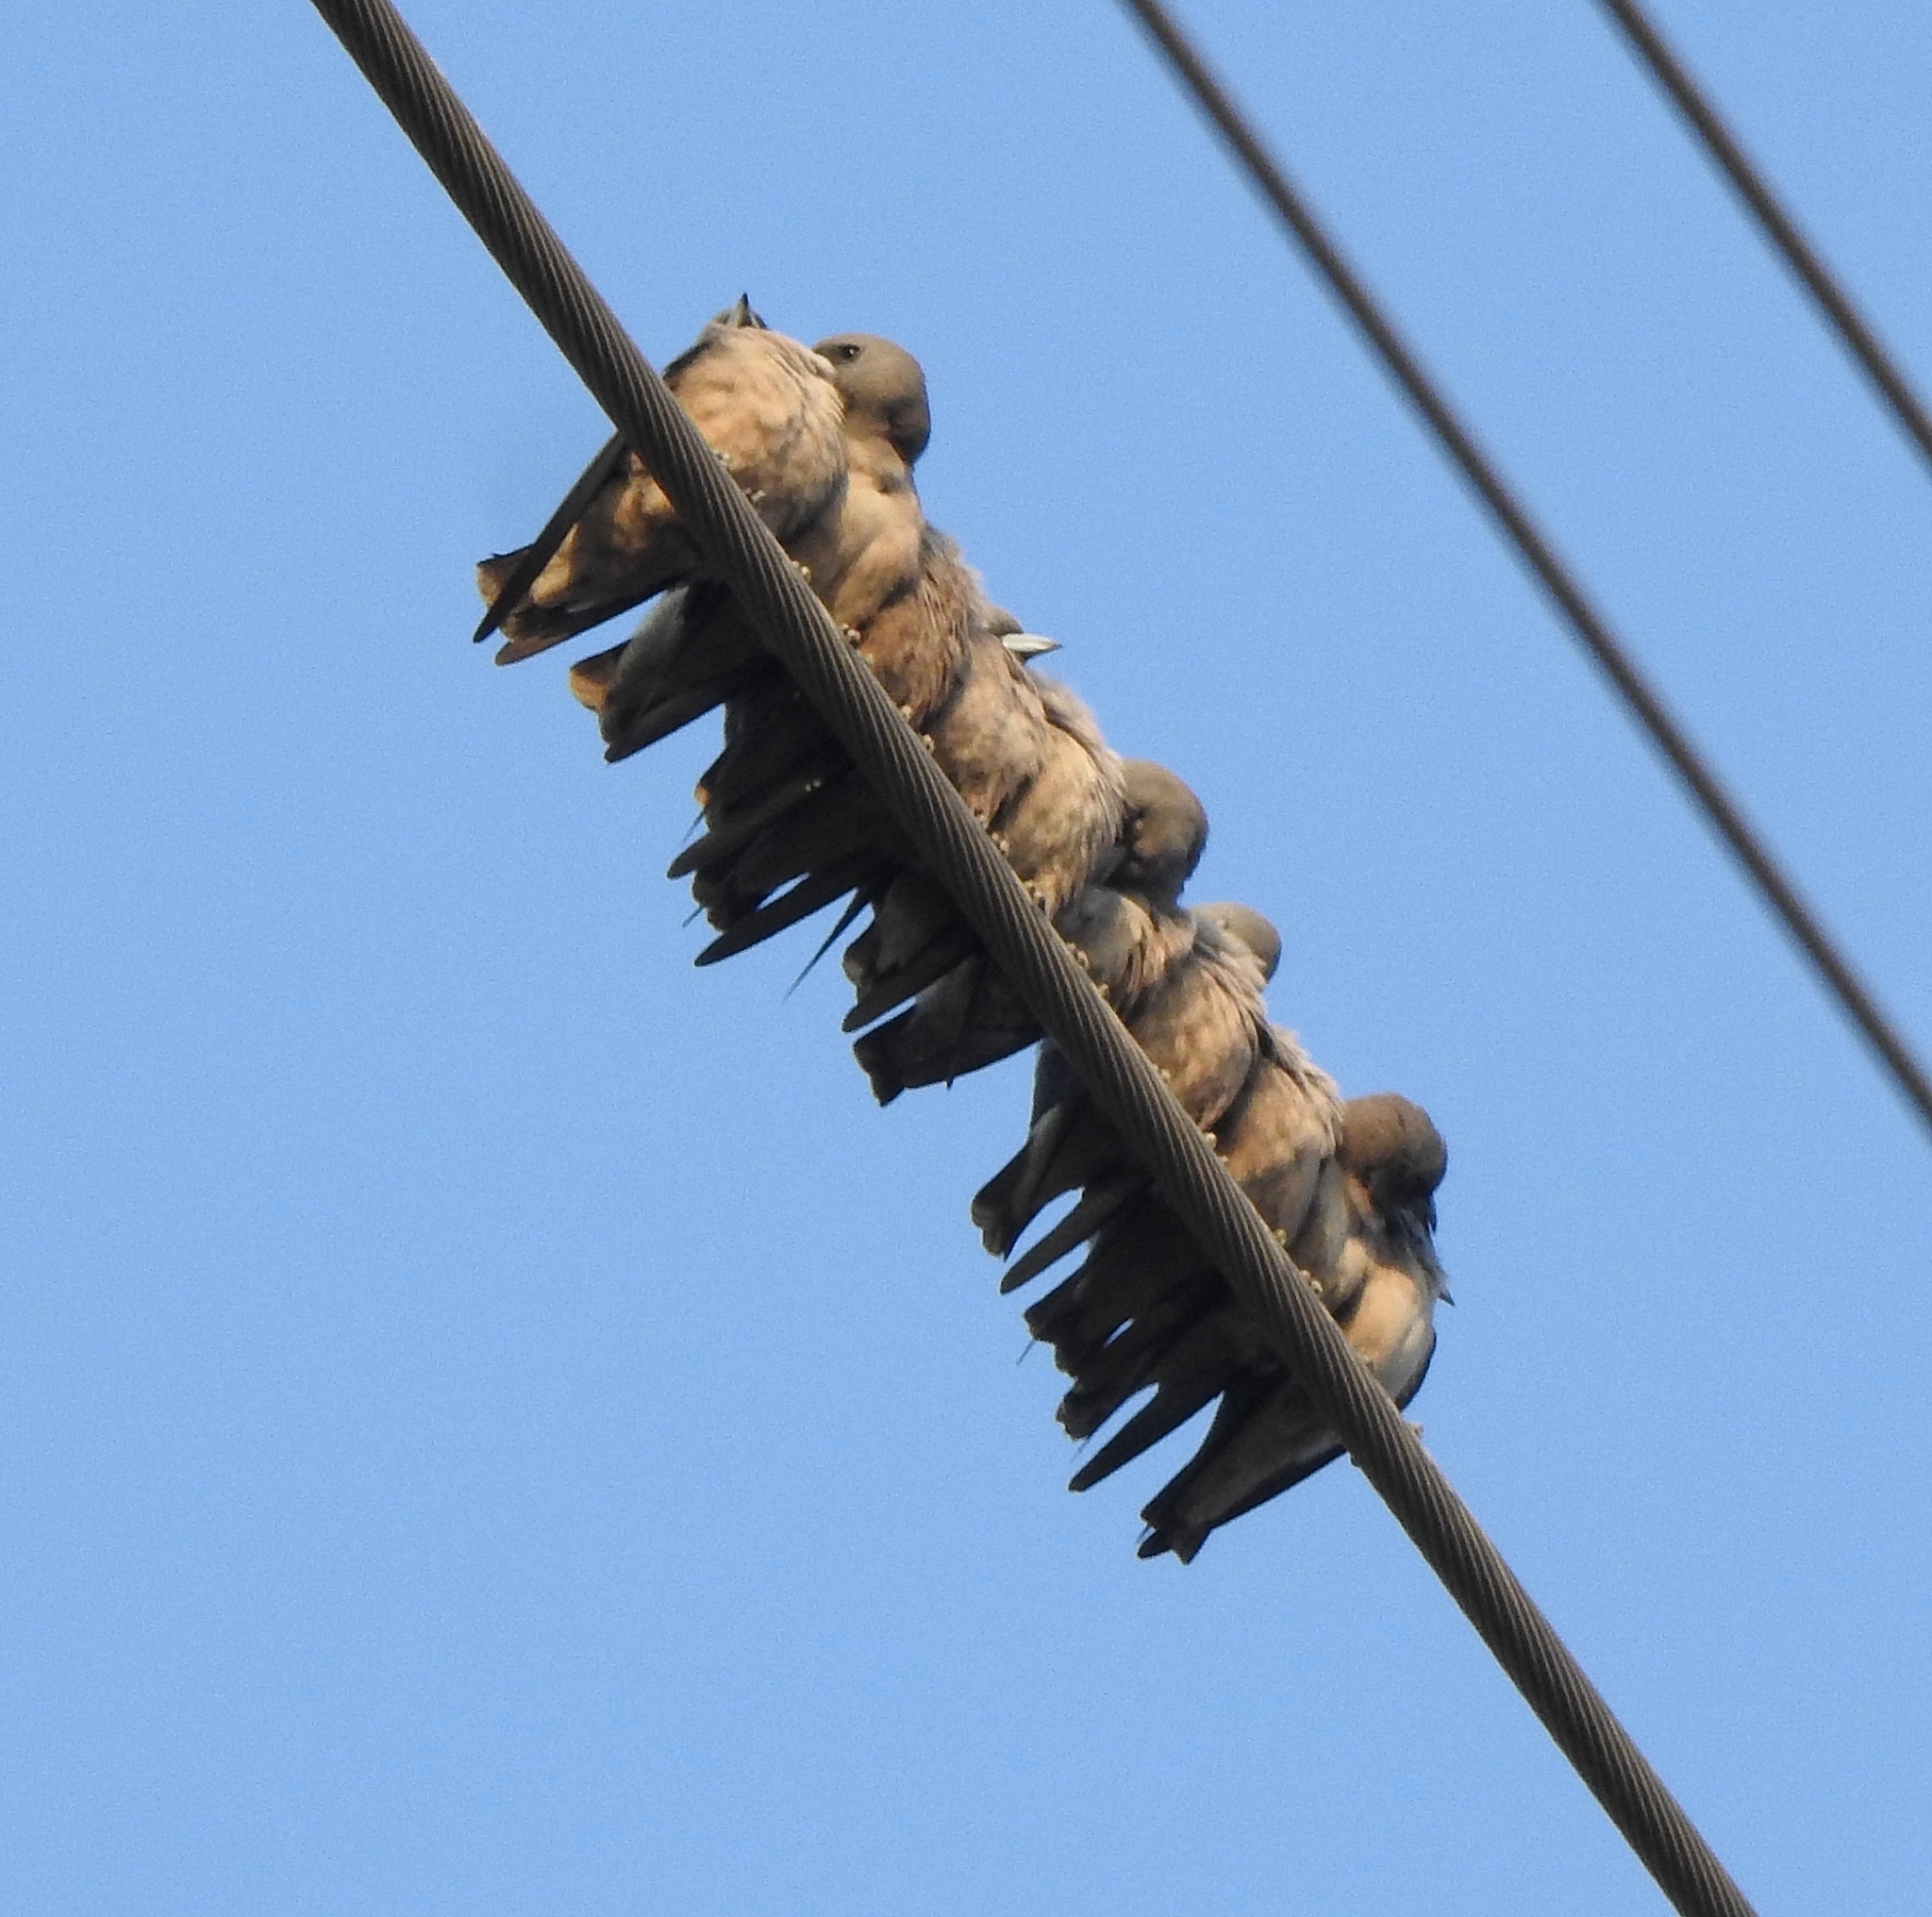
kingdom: Animalia
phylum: Chordata
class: Aves
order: Passeriformes
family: Artamidae
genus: Artamus
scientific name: Artamus fuscus
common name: Ashy woodswallow
